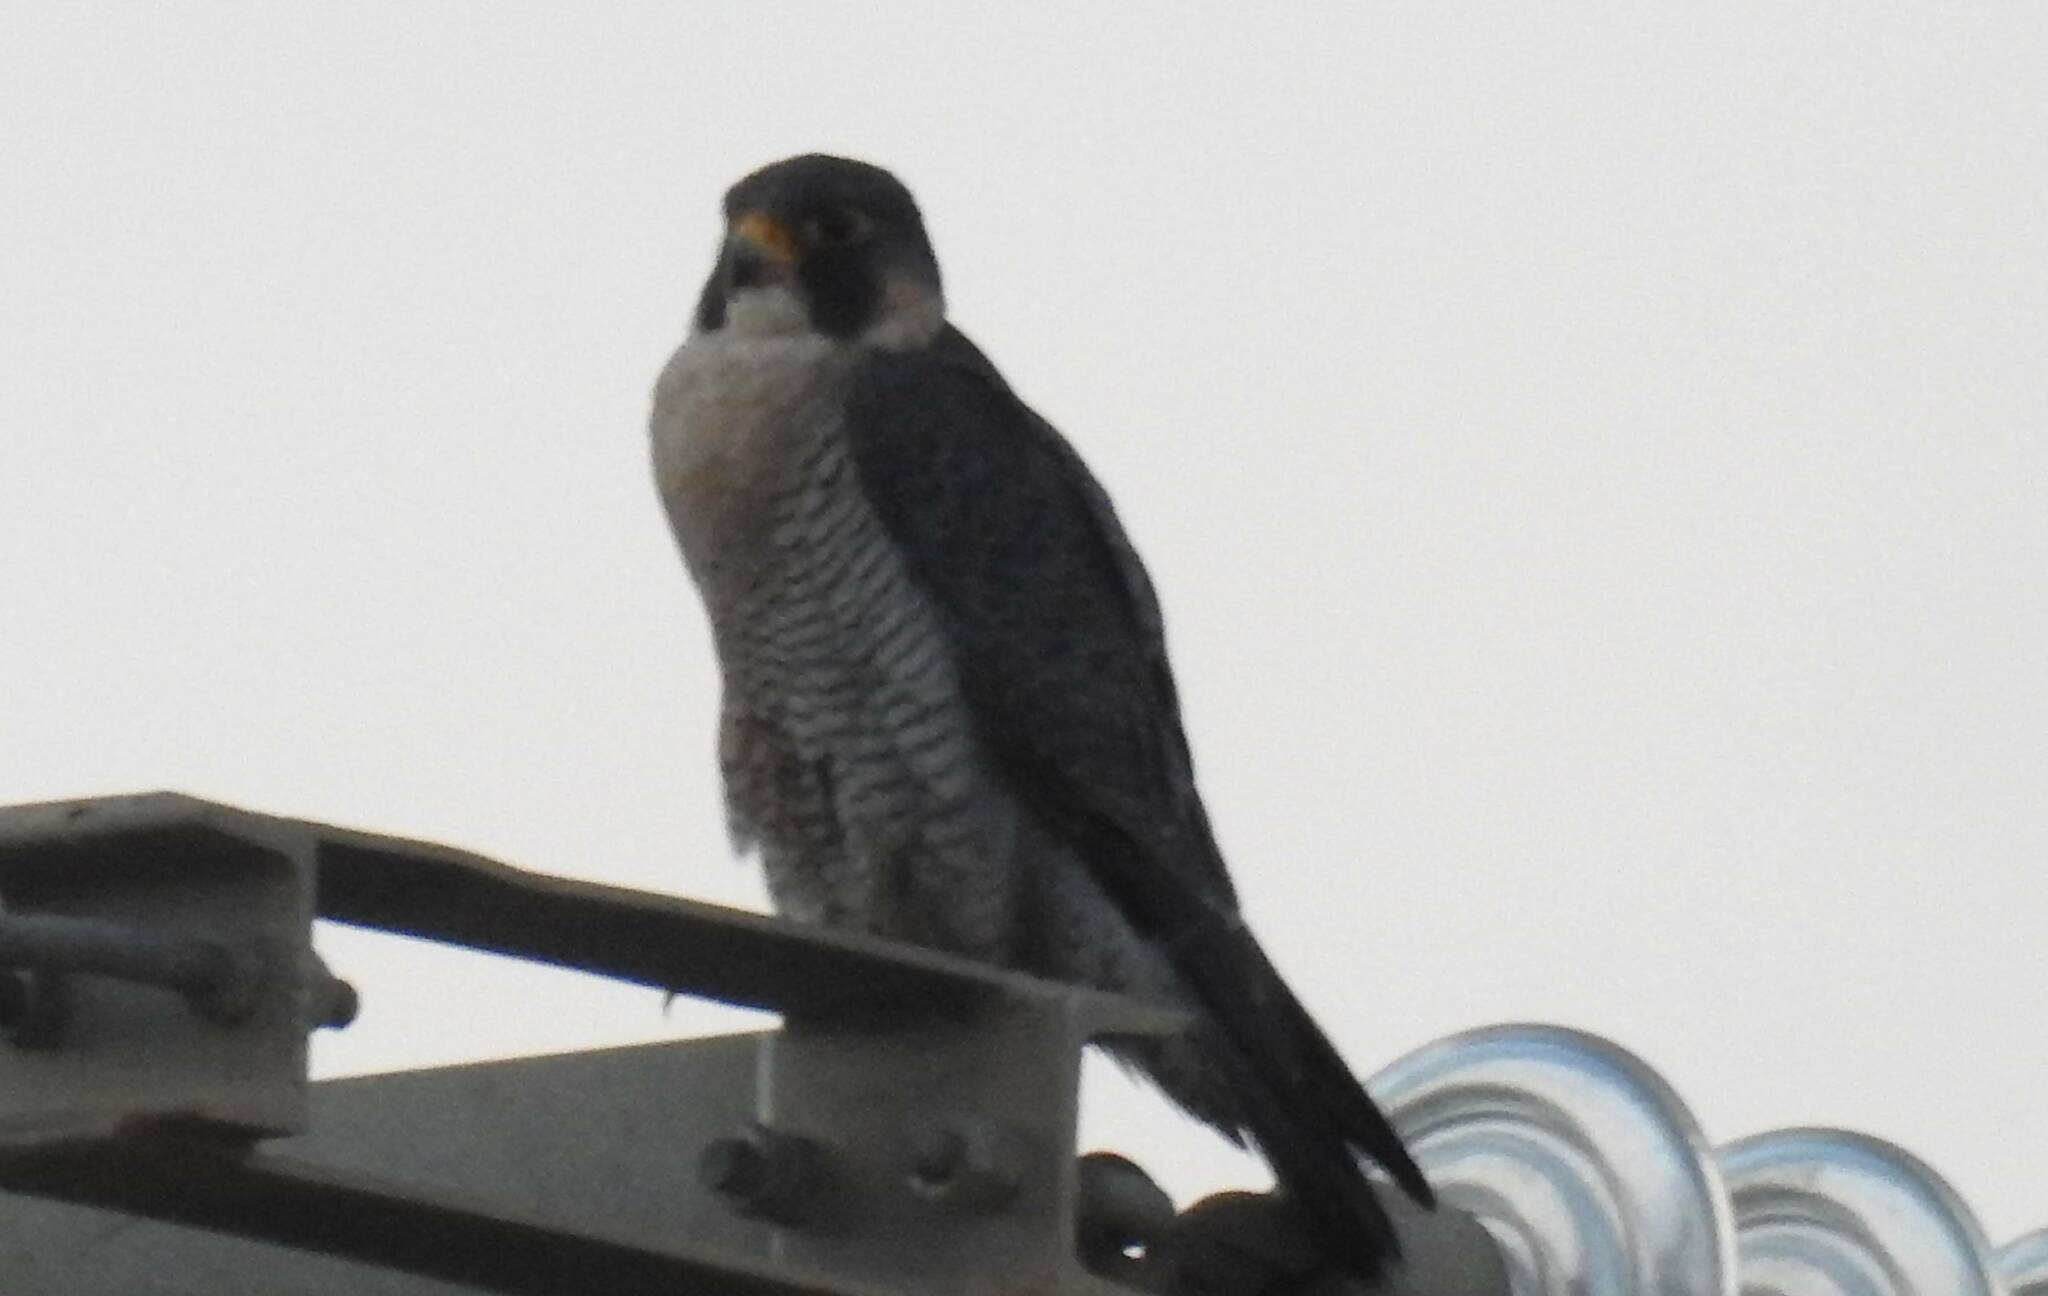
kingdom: Animalia
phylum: Chordata
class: Aves
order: Falconiformes
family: Falconidae
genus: Falco
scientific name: Falco peregrinus
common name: Peregrine falcon
